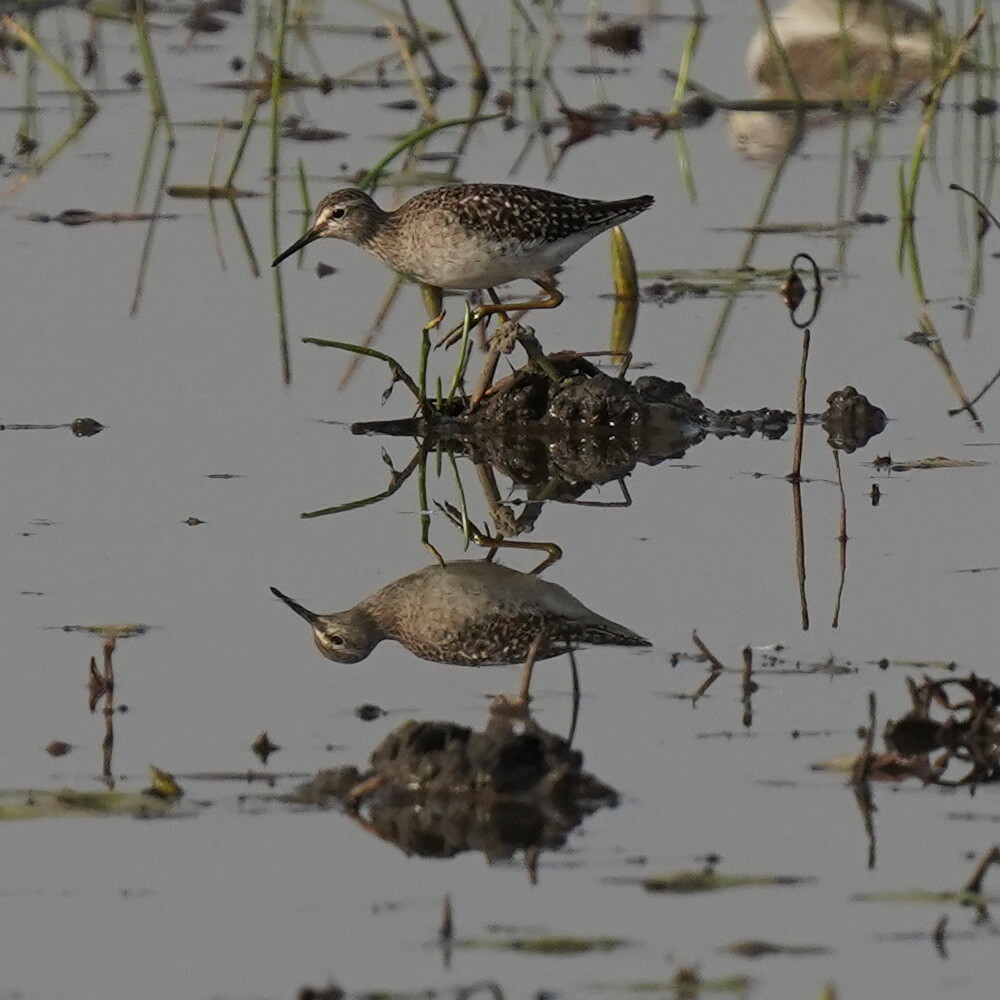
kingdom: Animalia
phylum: Chordata
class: Aves
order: Charadriiformes
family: Scolopacidae
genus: Tringa
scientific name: Tringa glareola
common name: Wood sandpiper
